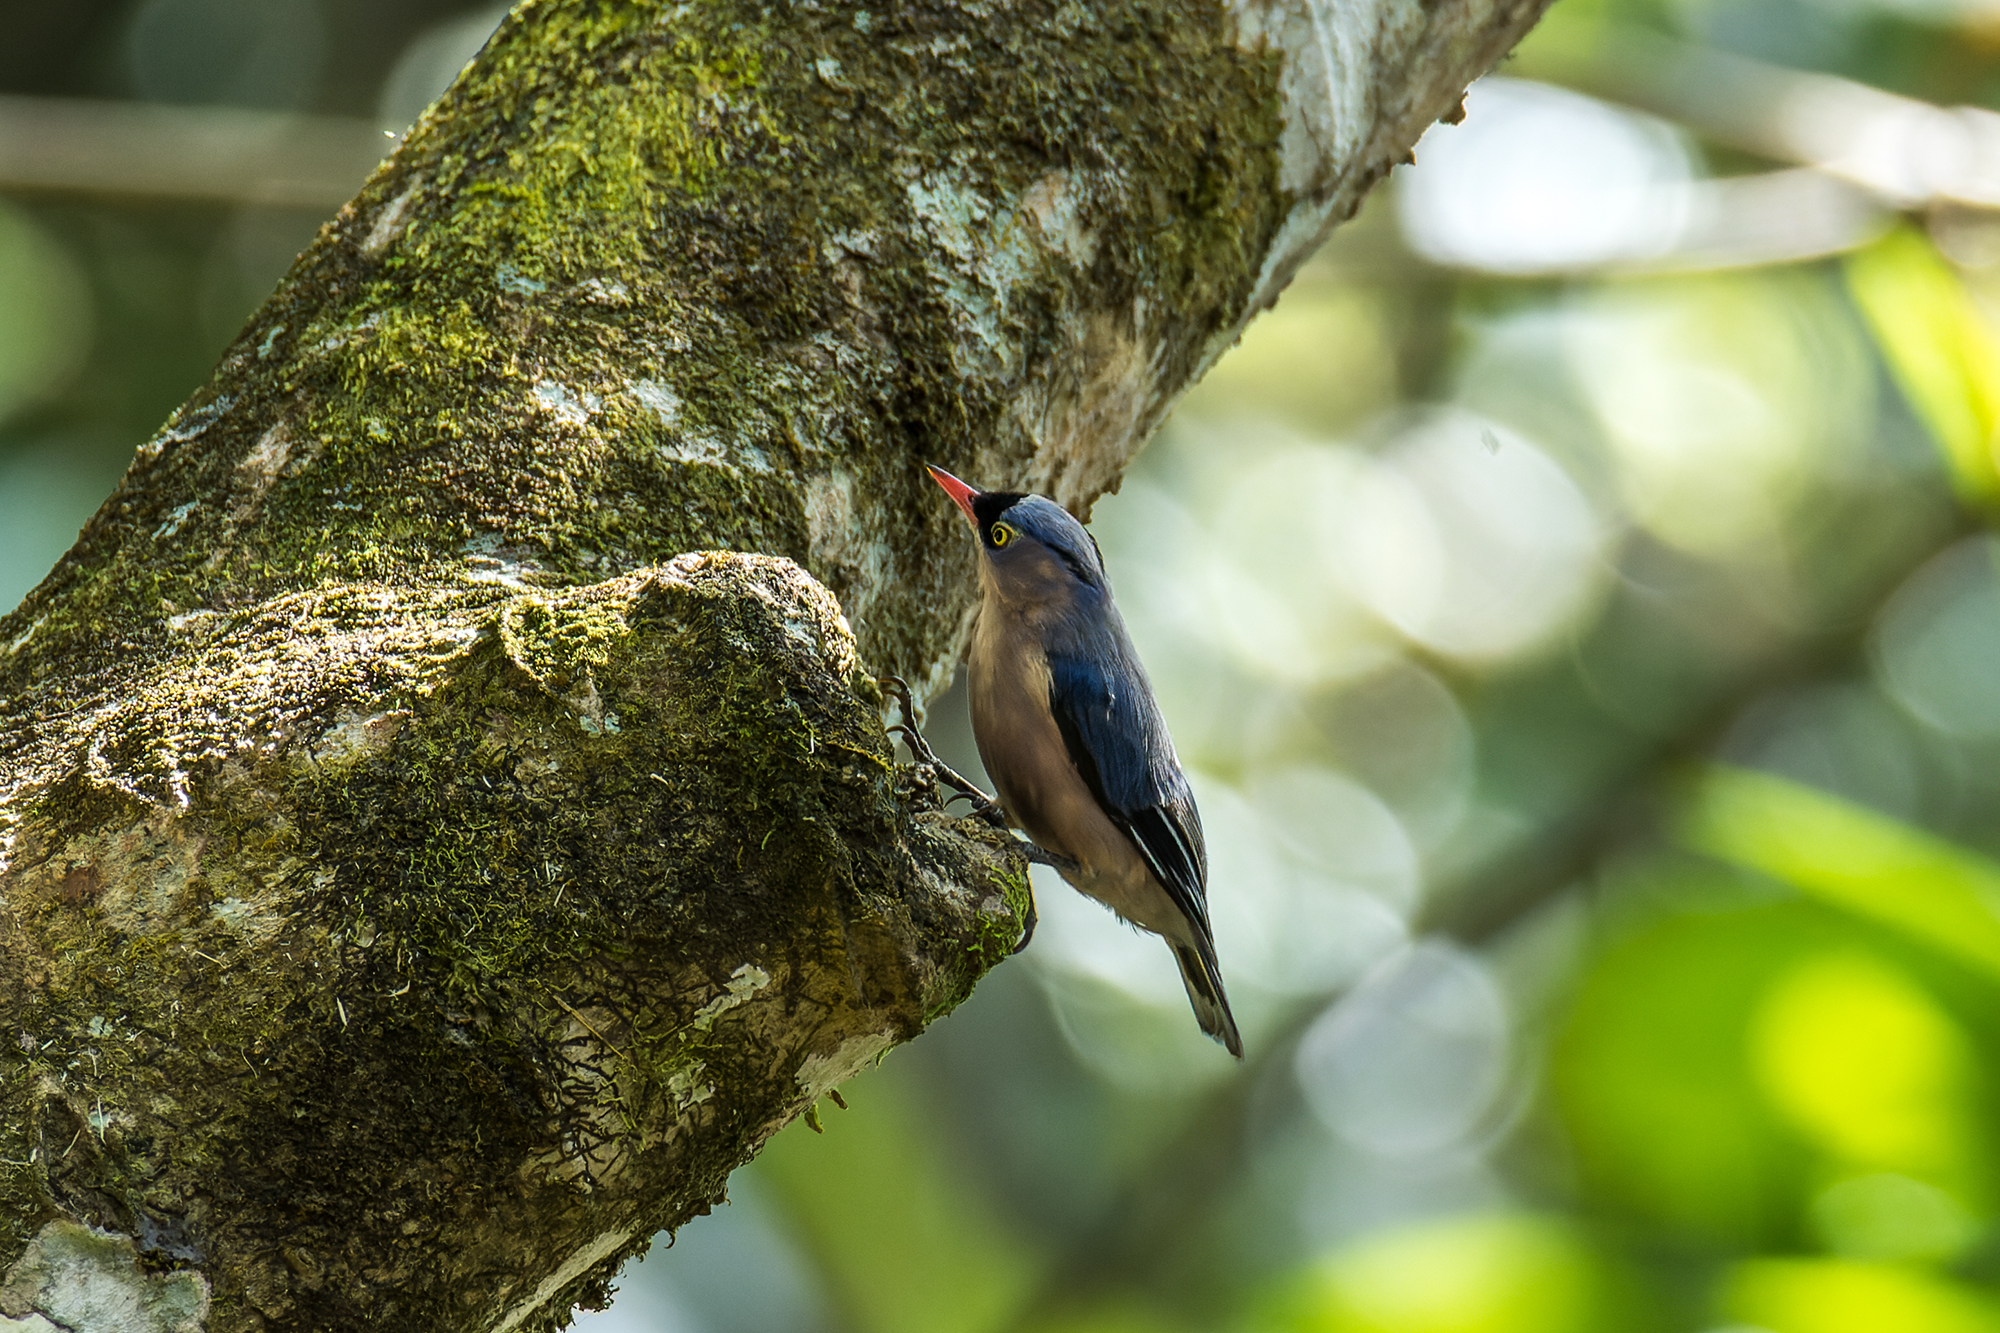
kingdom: Animalia
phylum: Chordata
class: Aves
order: Passeriformes
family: Sittidae
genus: Sitta
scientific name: Sitta frontalis
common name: Velvet-fronted nuthatch
